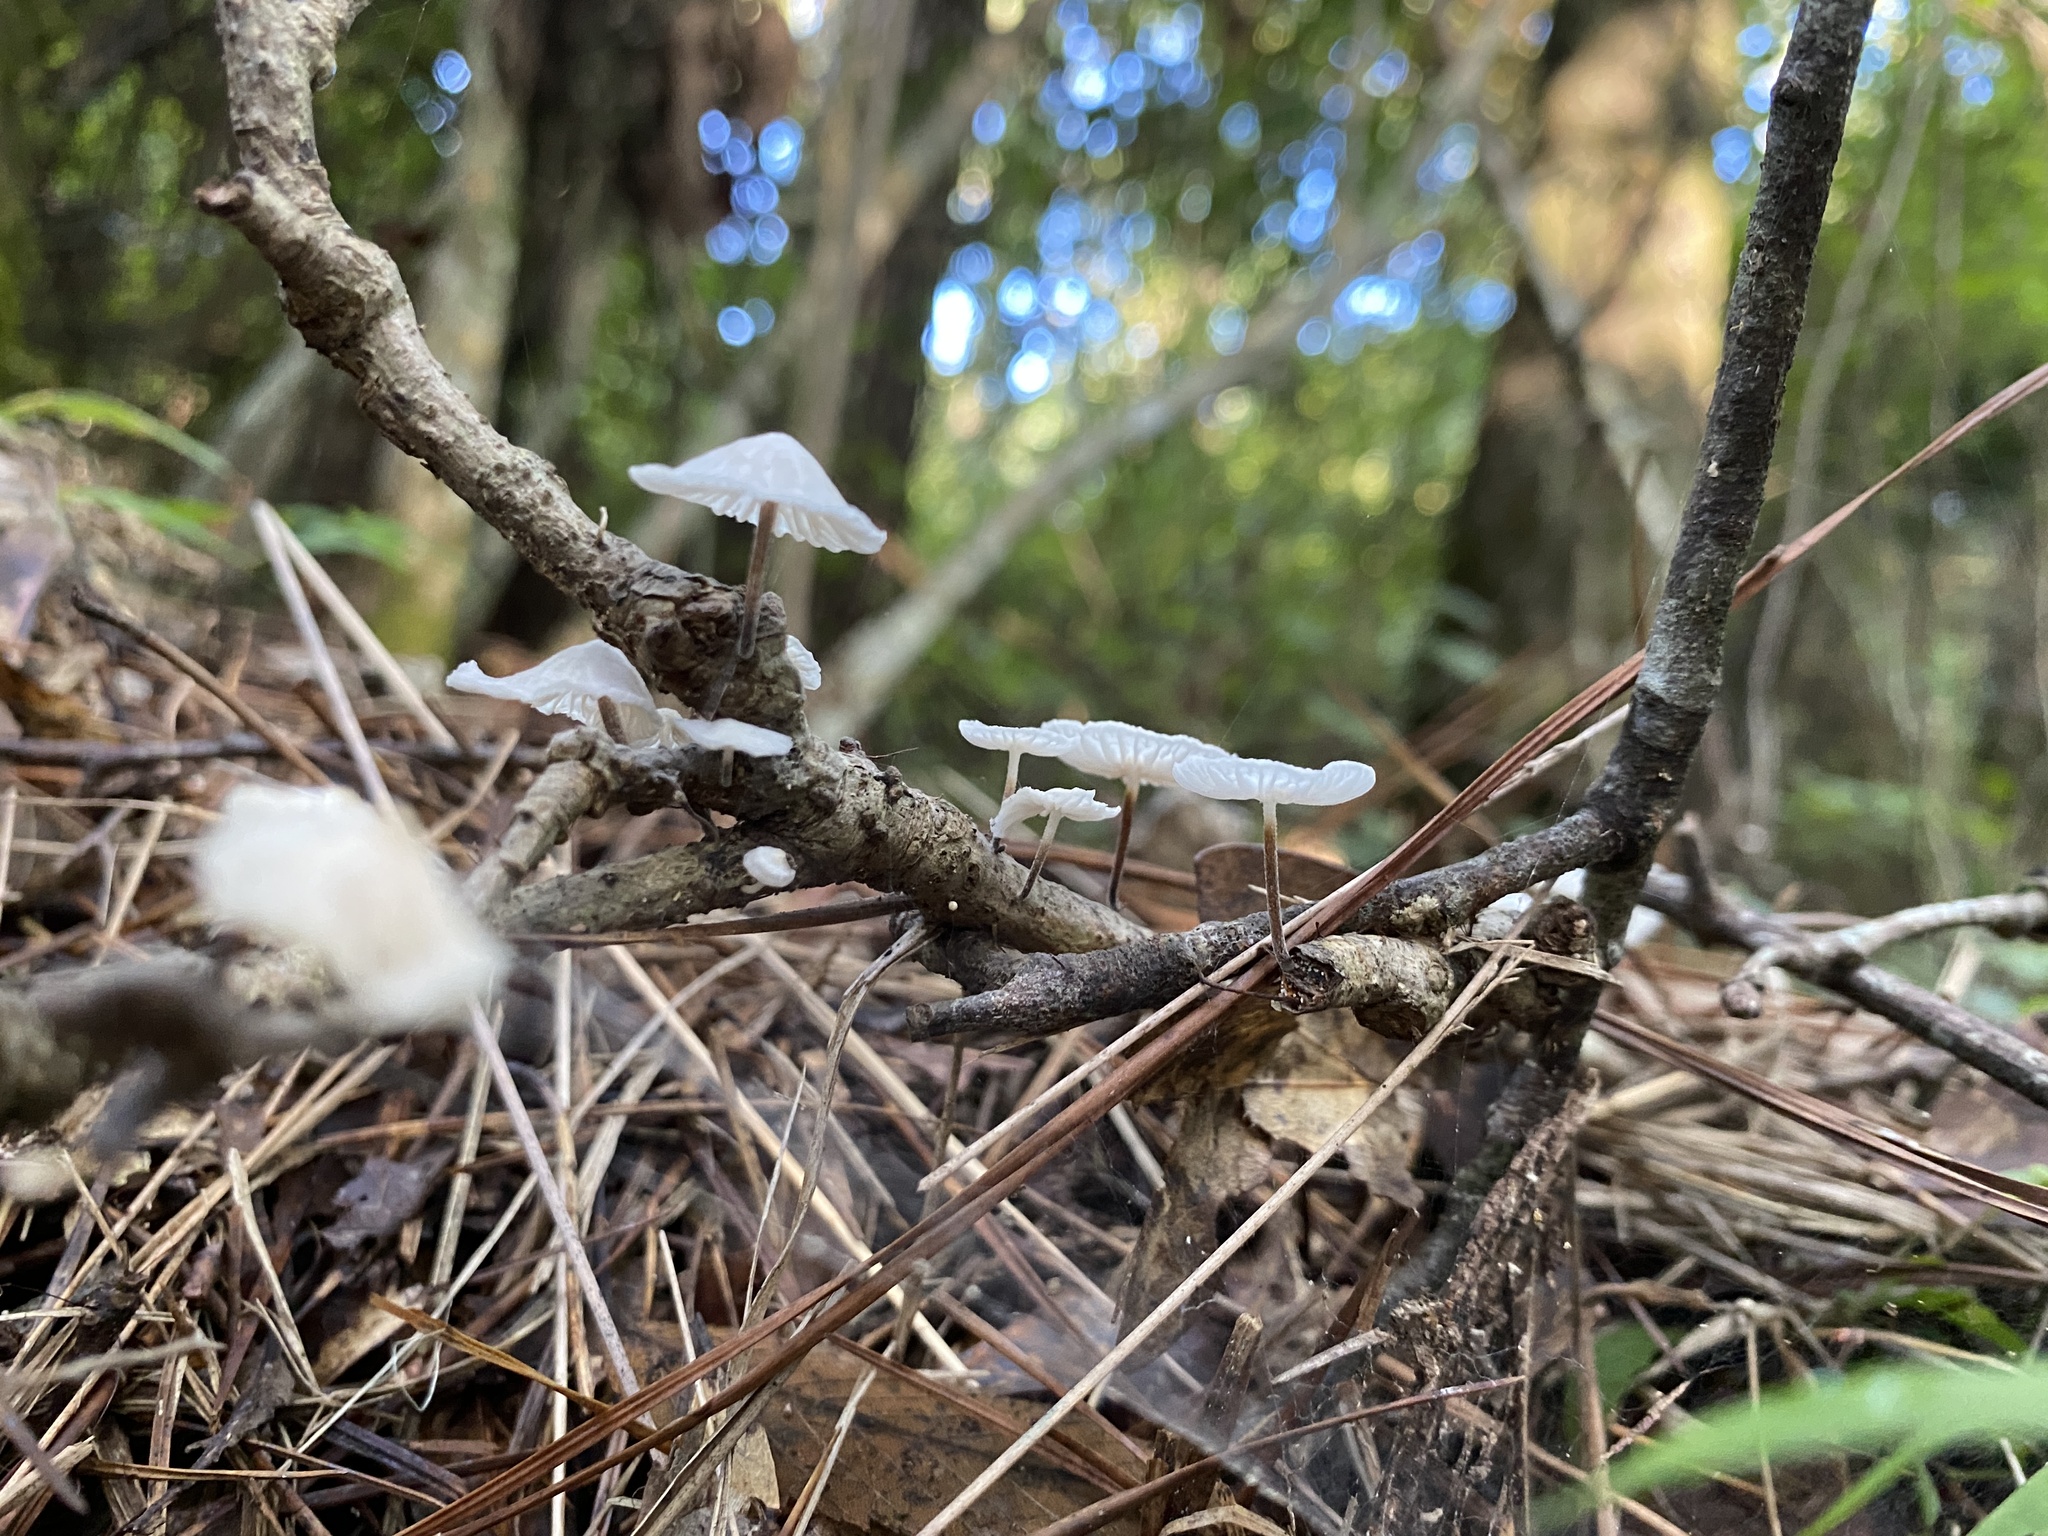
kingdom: Fungi
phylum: Basidiomycota
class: Agaricomycetes
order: Agaricales
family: Marasmiaceae
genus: Tetrapyrgos
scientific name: Tetrapyrgos nigripes
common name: Black-stalked marasmius
